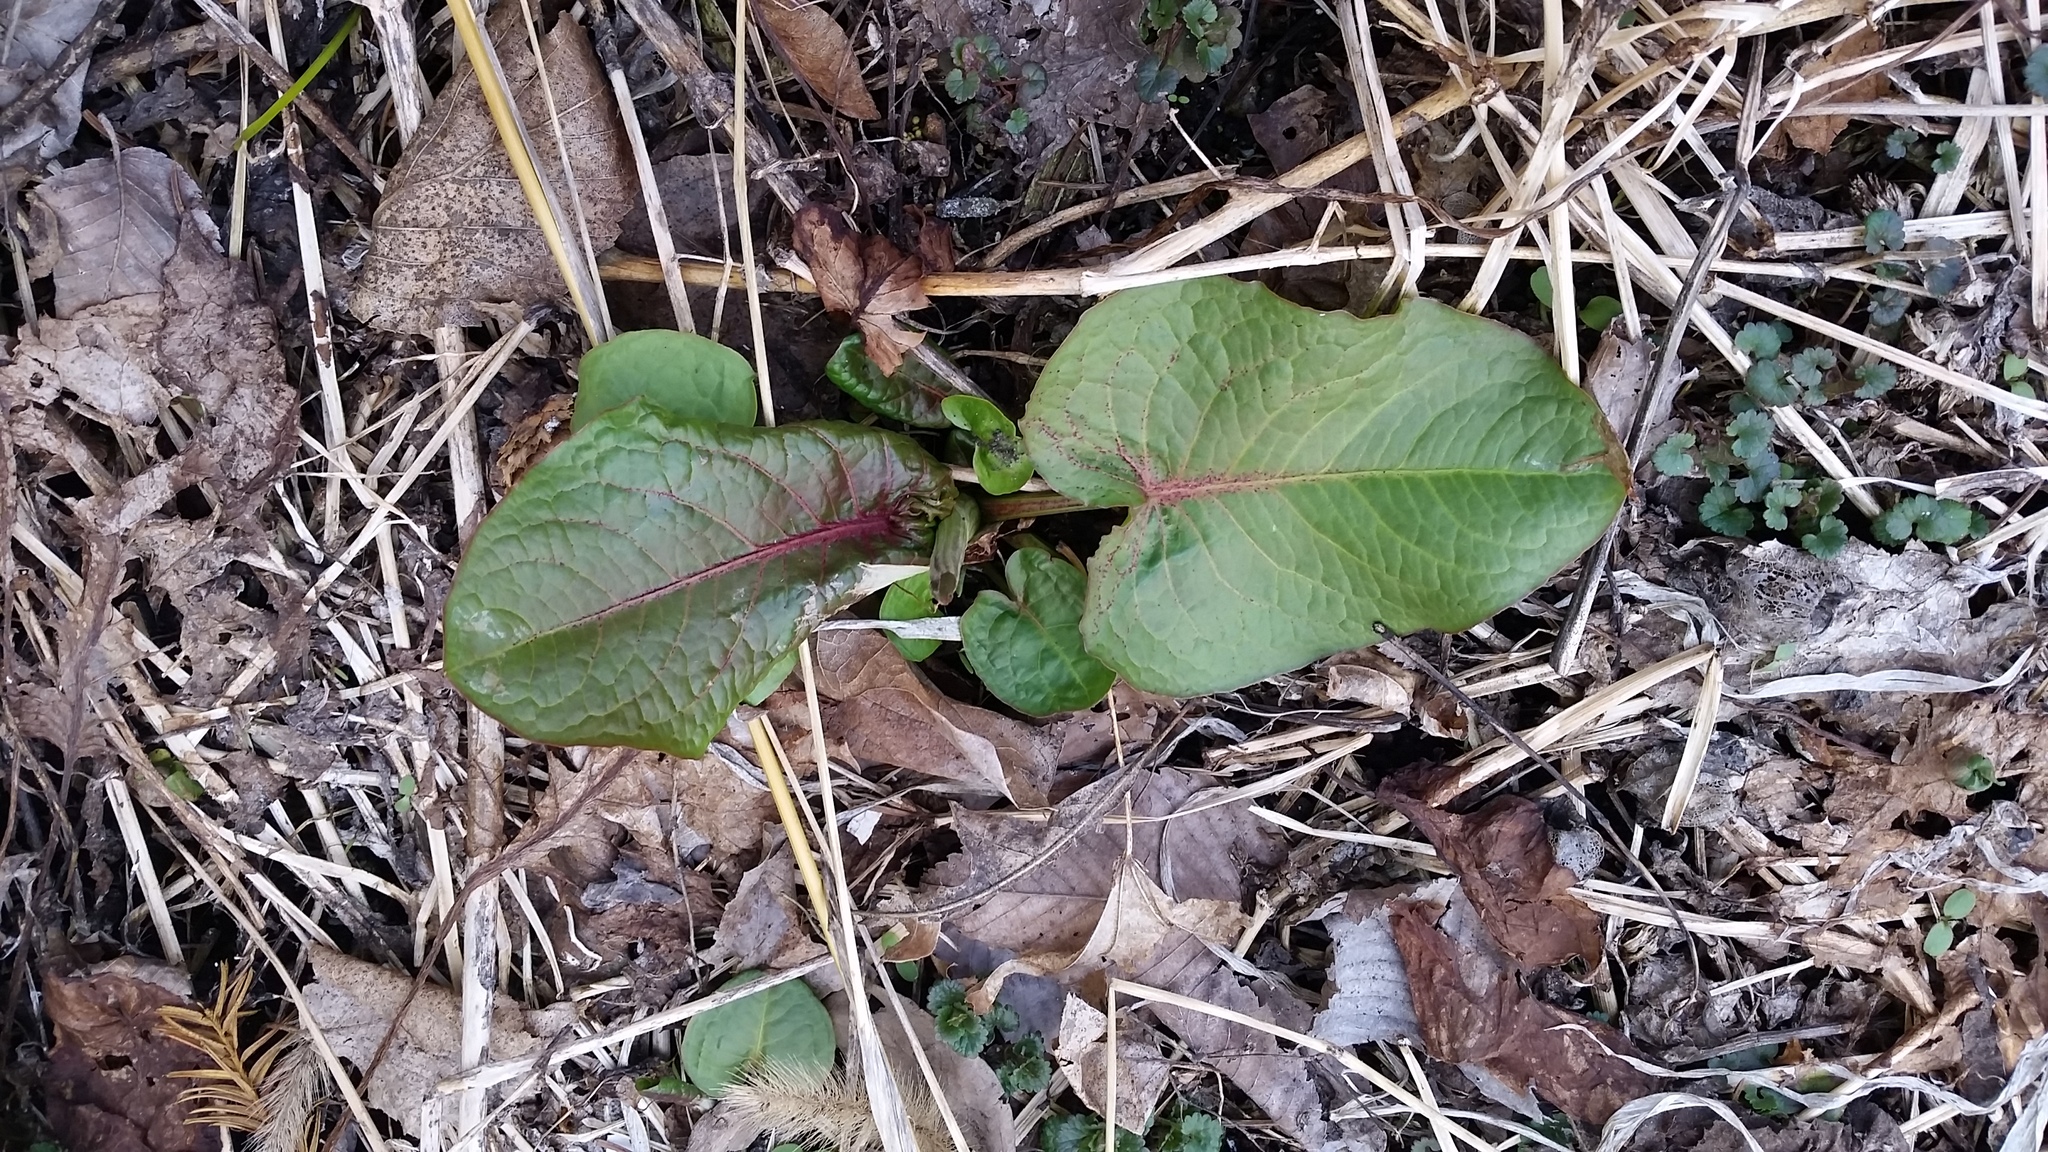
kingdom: Plantae
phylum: Tracheophyta
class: Magnoliopsida
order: Caryophyllales
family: Polygonaceae
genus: Rumex
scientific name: Rumex obtusifolius
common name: Bitter dock
